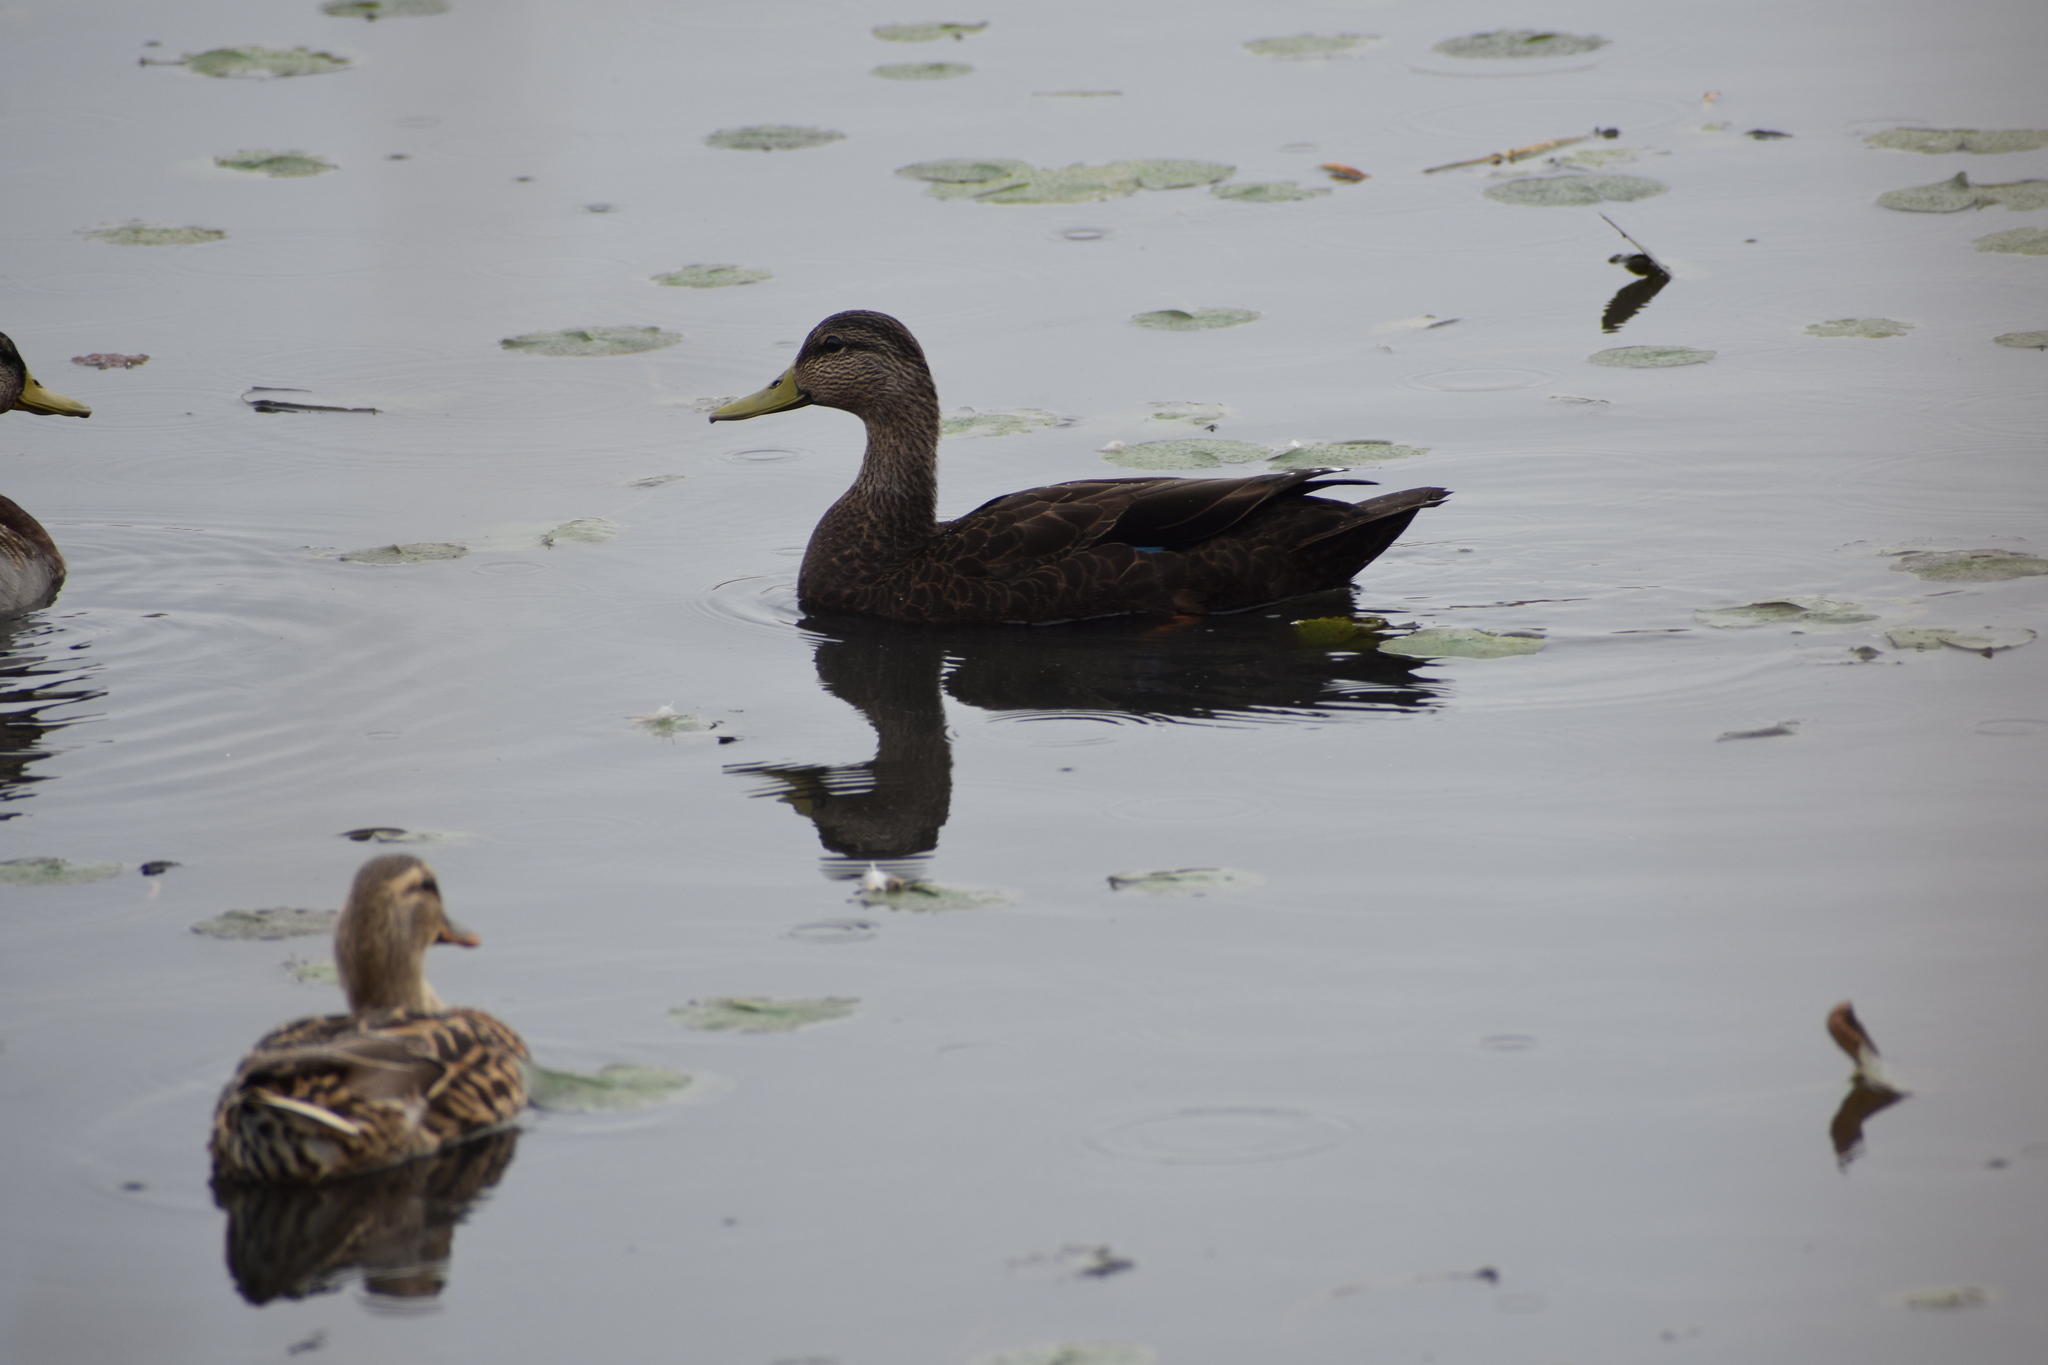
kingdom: Animalia
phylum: Chordata
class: Aves
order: Anseriformes
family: Anatidae
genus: Anas
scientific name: Anas rubripes
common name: American black duck
